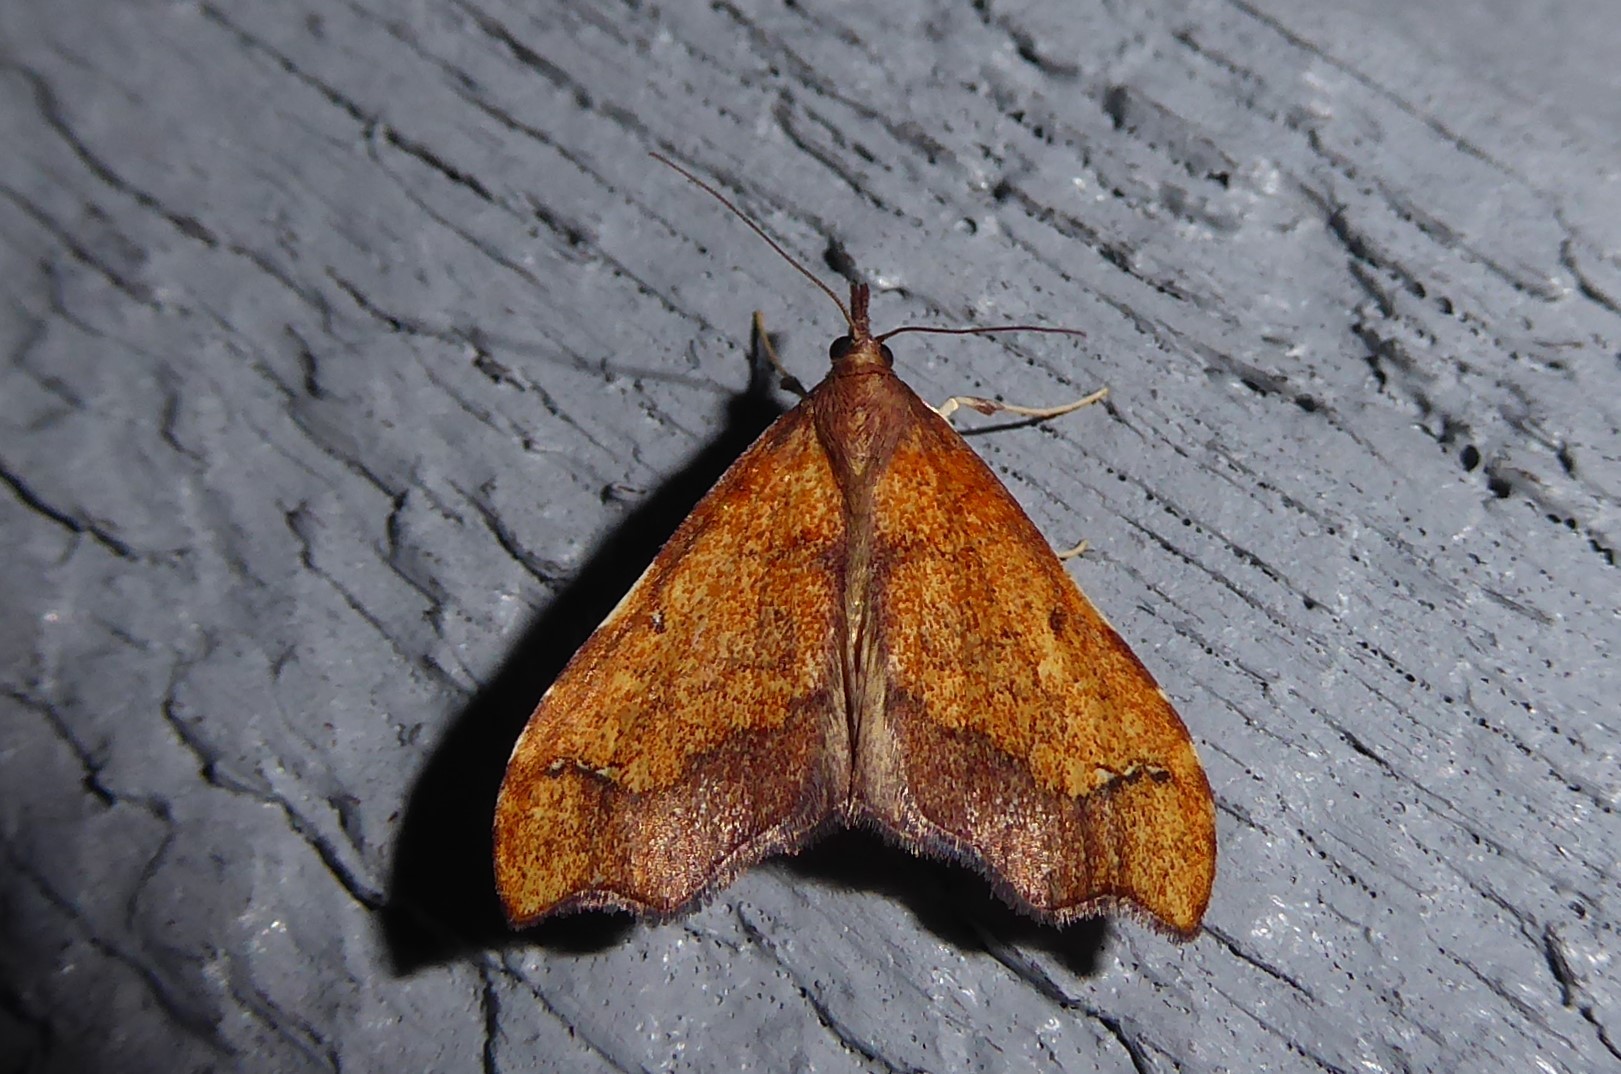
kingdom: Animalia
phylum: Arthropoda
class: Insecta
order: Lepidoptera
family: Crambidae
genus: Deana
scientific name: Deana hybreasalis
